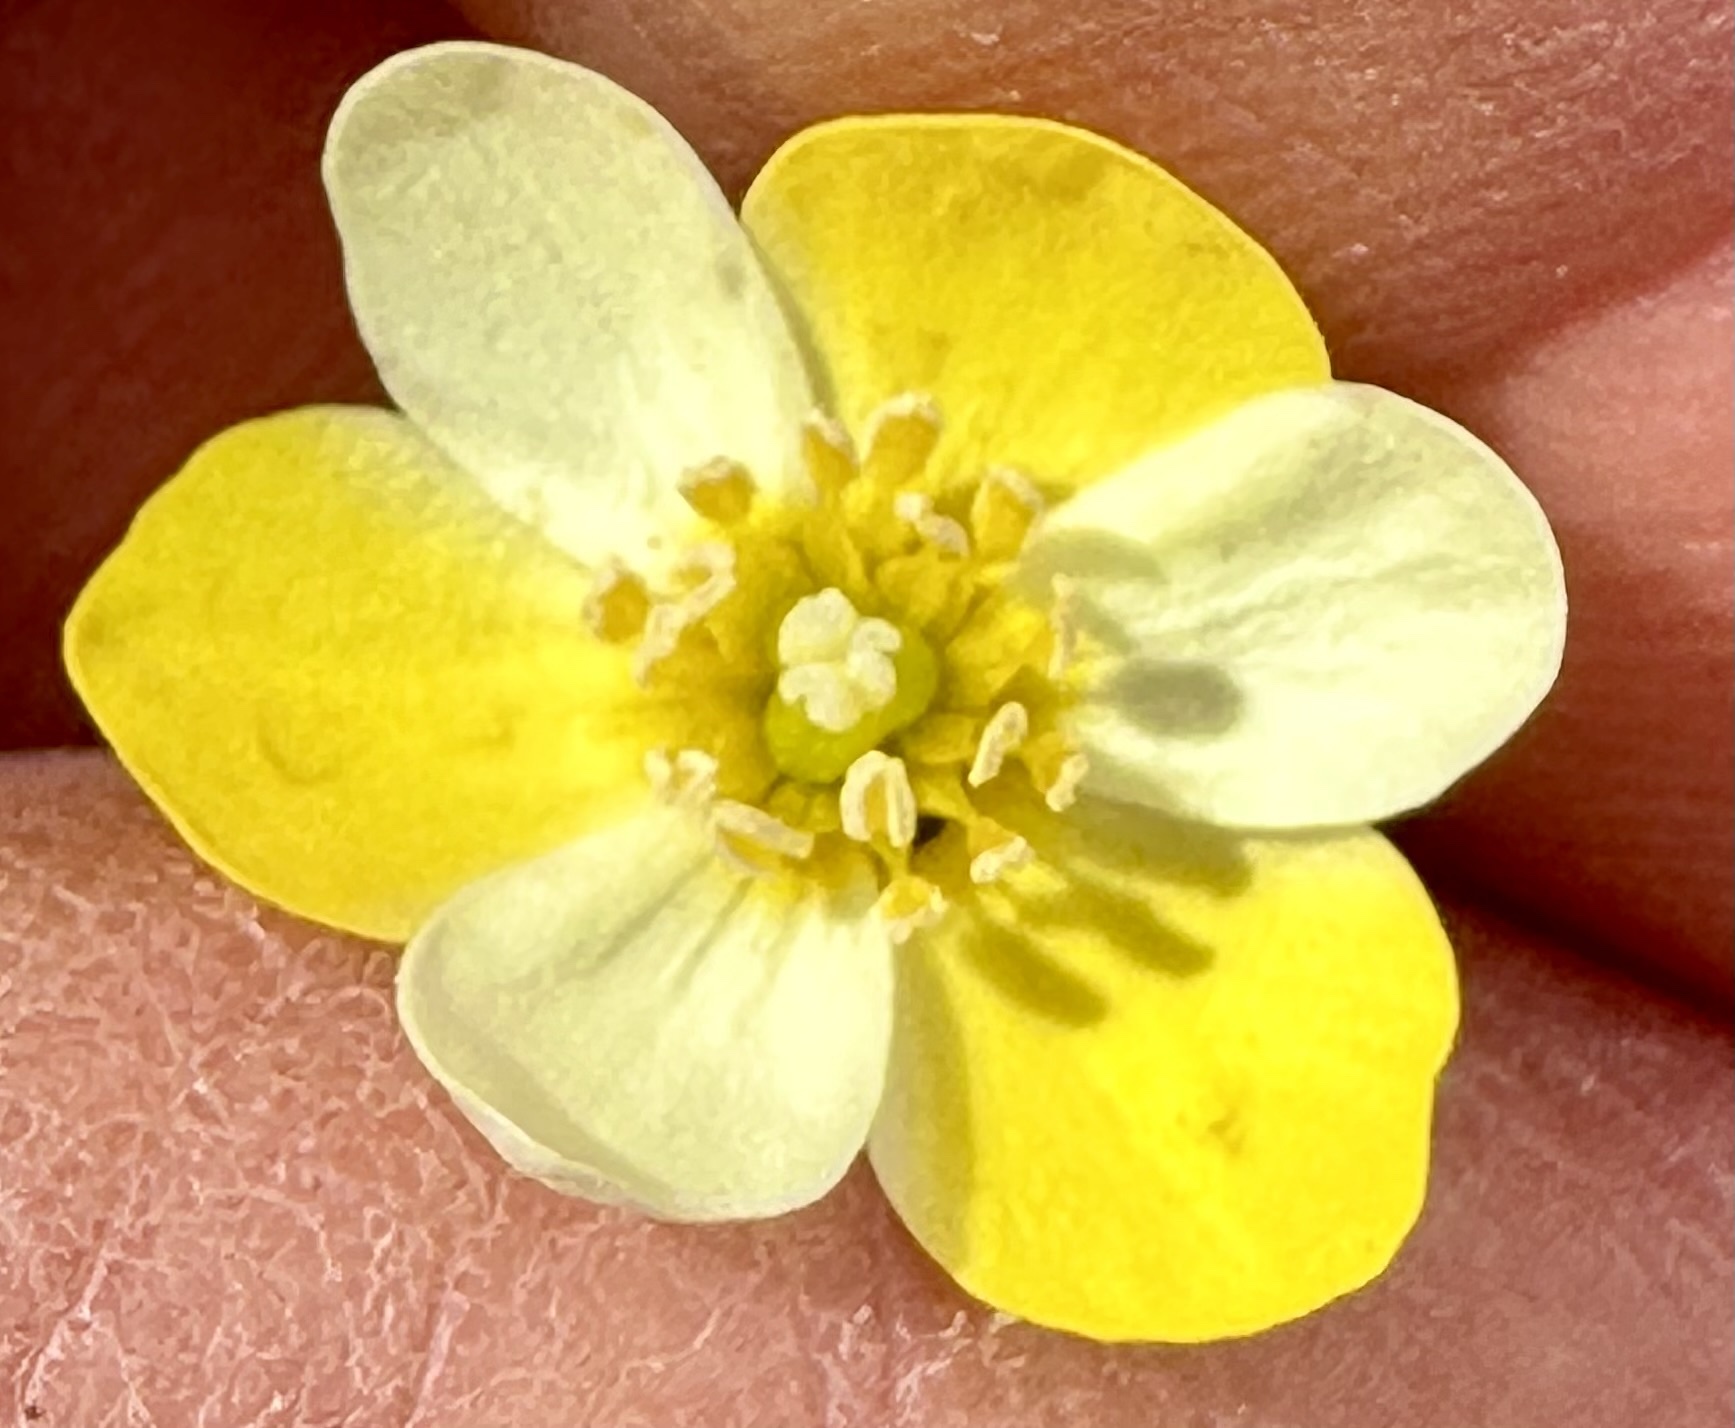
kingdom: Plantae
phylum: Tracheophyta
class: Magnoliopsida
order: Ranunculales
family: Papaveraceae
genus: Platystigma
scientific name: Platystigma lineare
